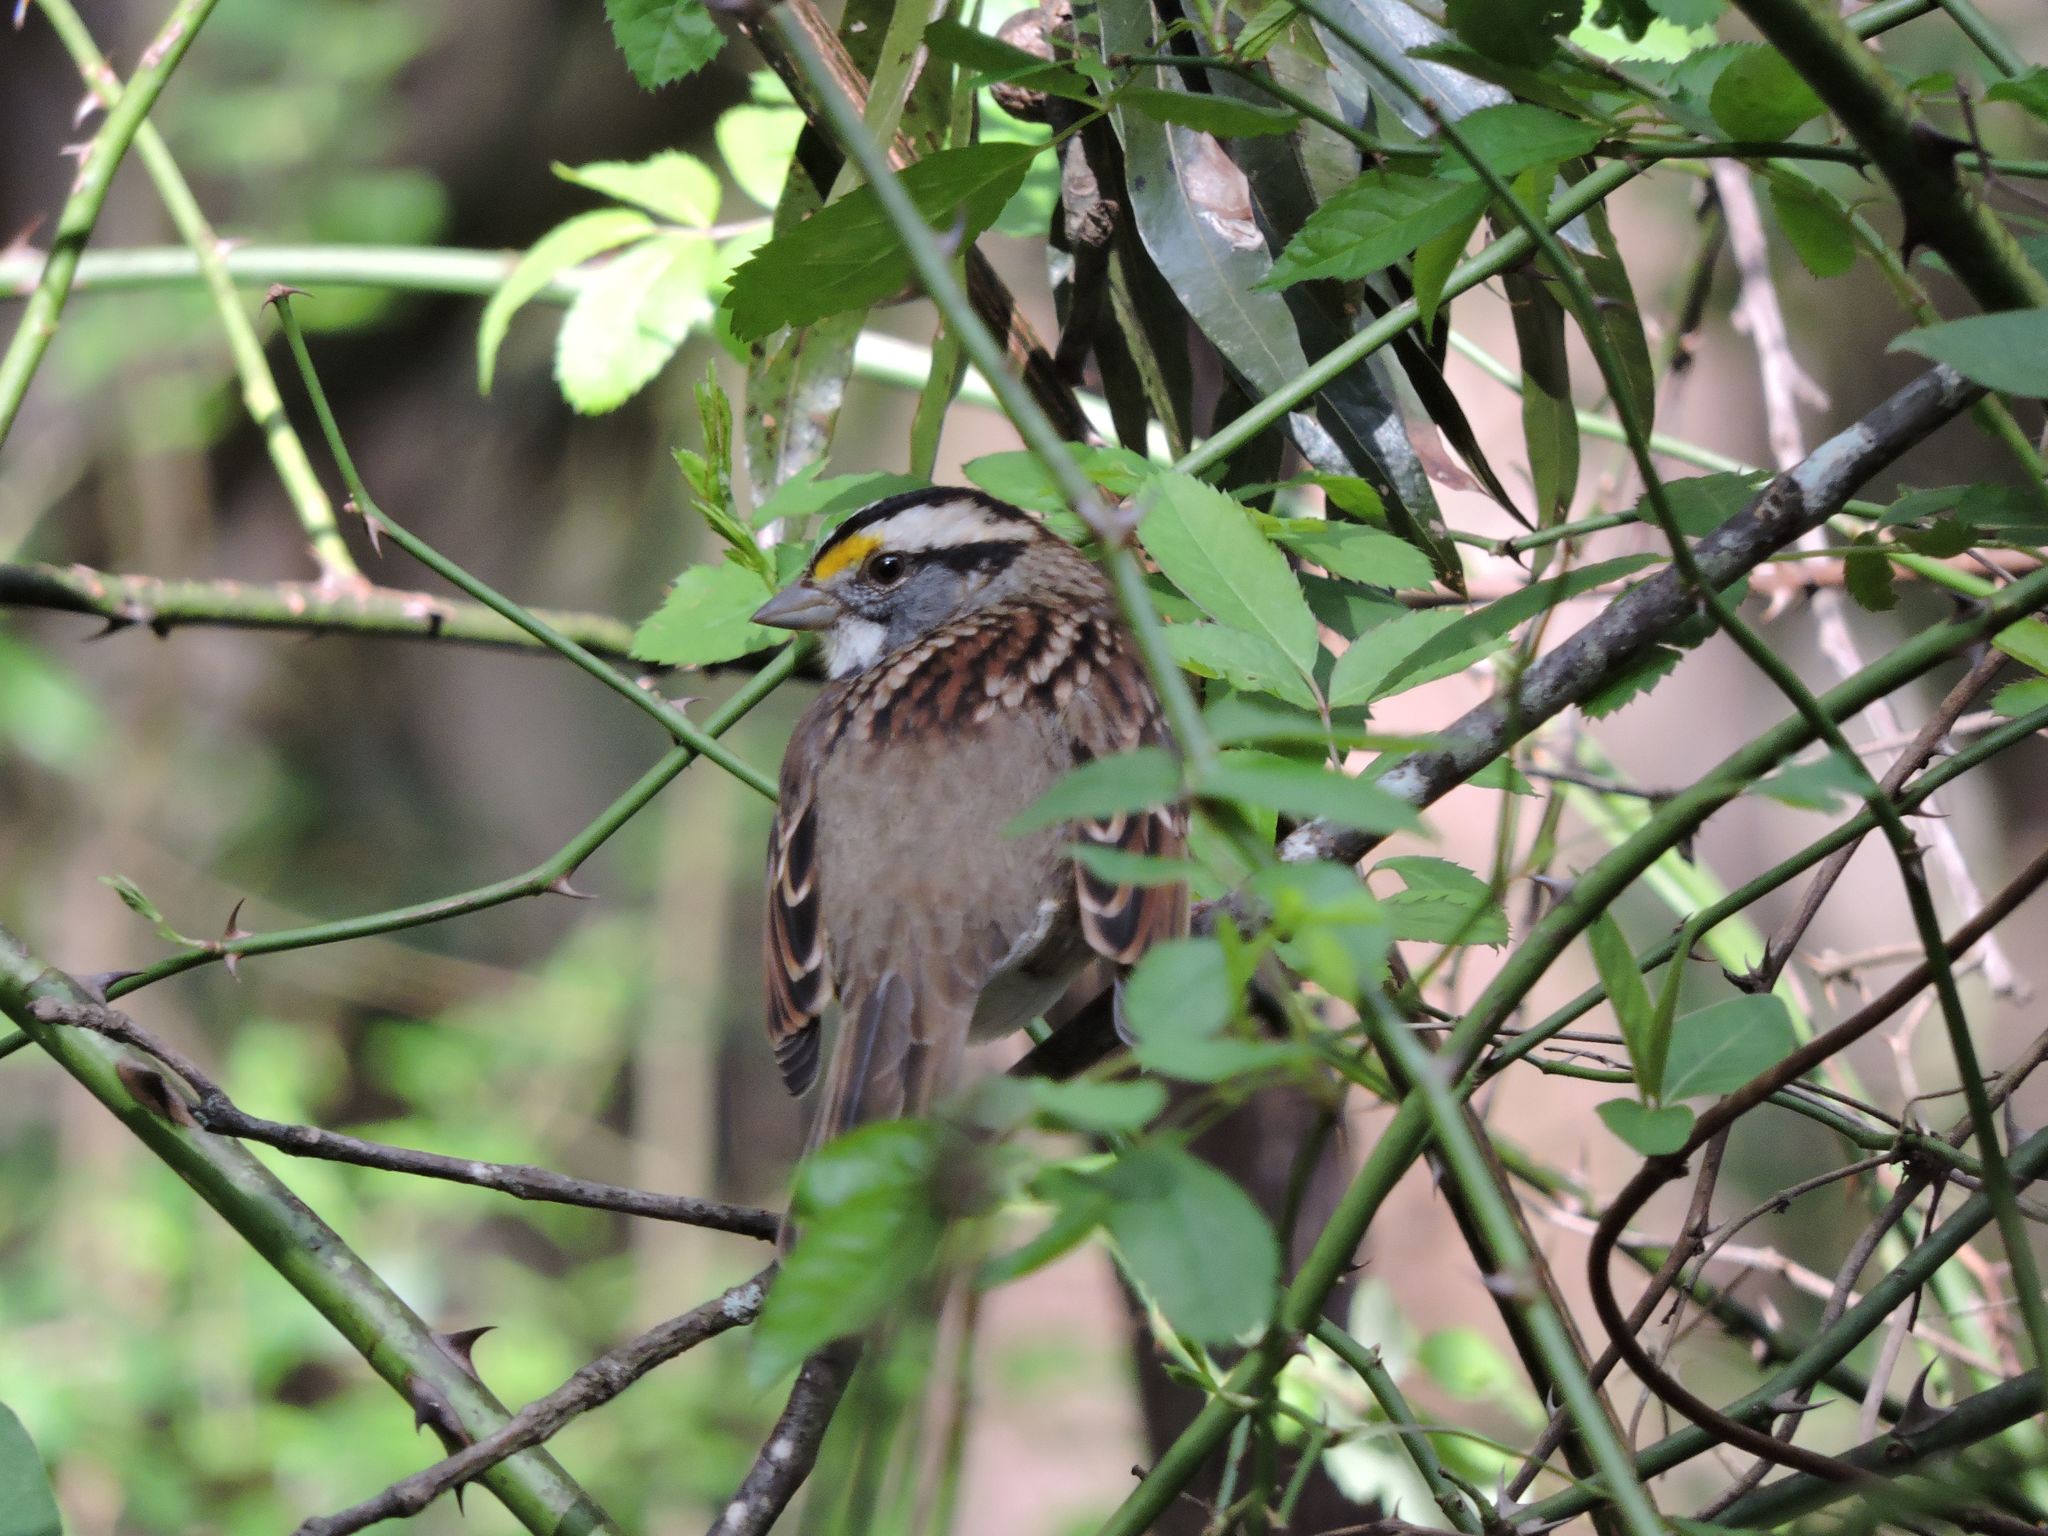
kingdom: Animalia
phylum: Chordata
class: Aves
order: Passeriformes
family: Passerellidae
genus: Zonotrichia
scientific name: Zonotrichia albicollis
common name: White-throated sparrow
